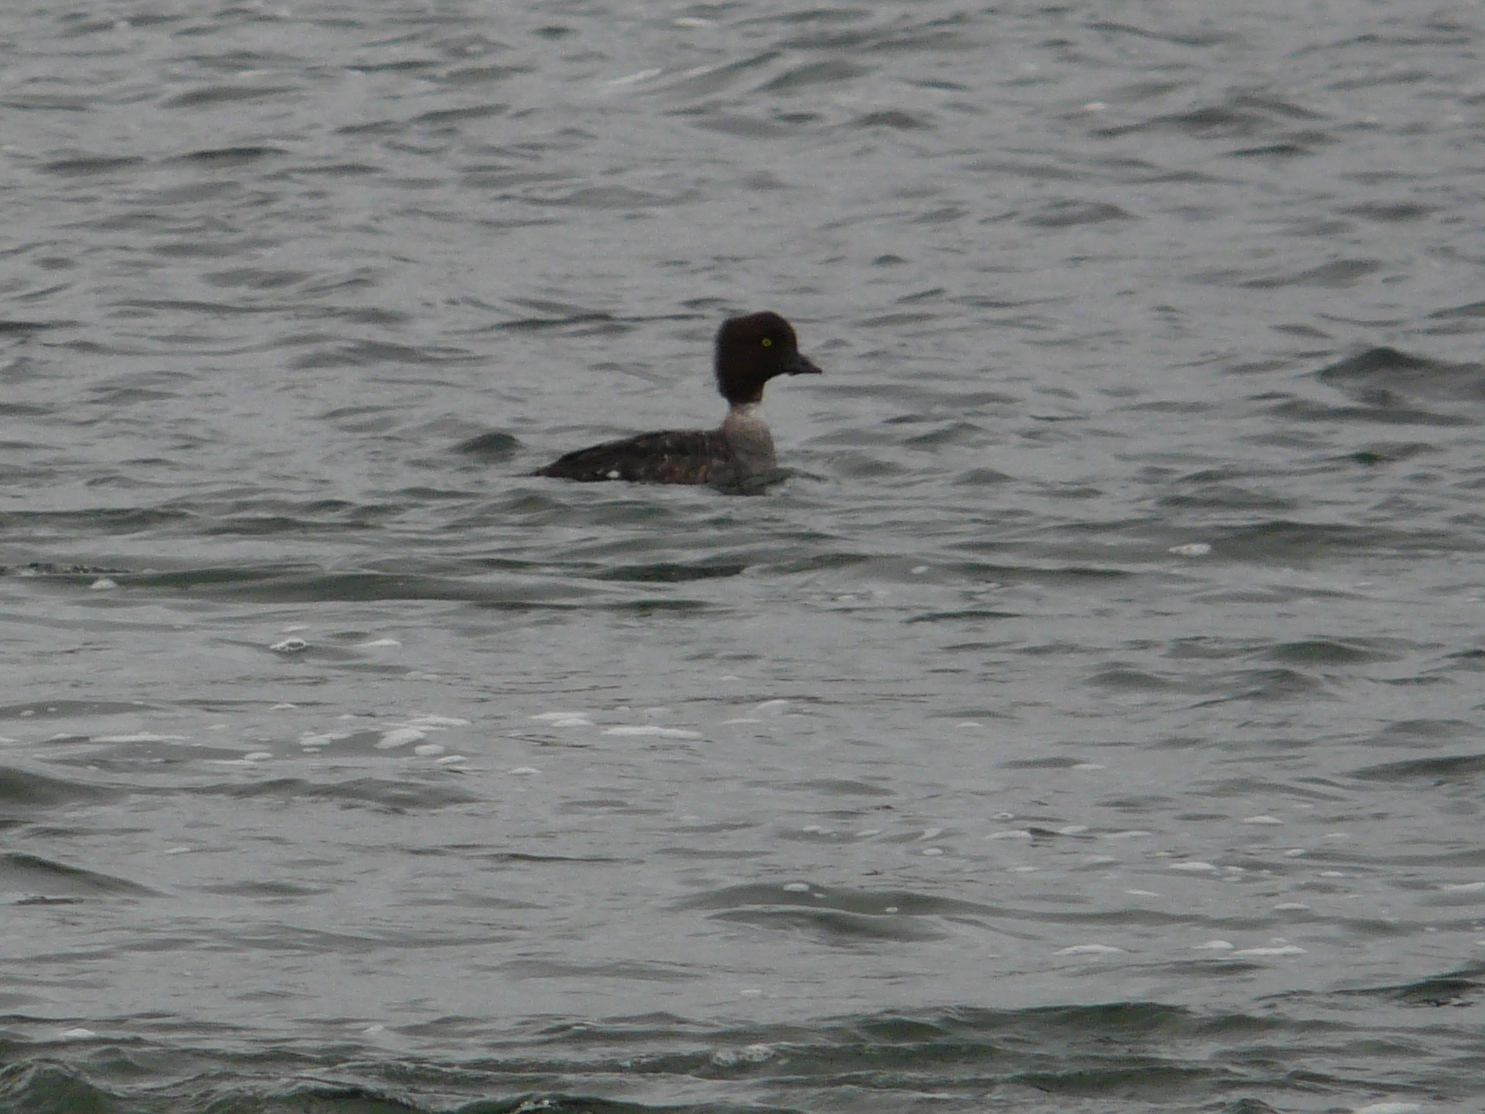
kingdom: Animalia
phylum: Chordata
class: Aves
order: Anseriformes
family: Anatidae
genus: Bucephala
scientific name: Bucephala islandica
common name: Barrow's goldeneye
